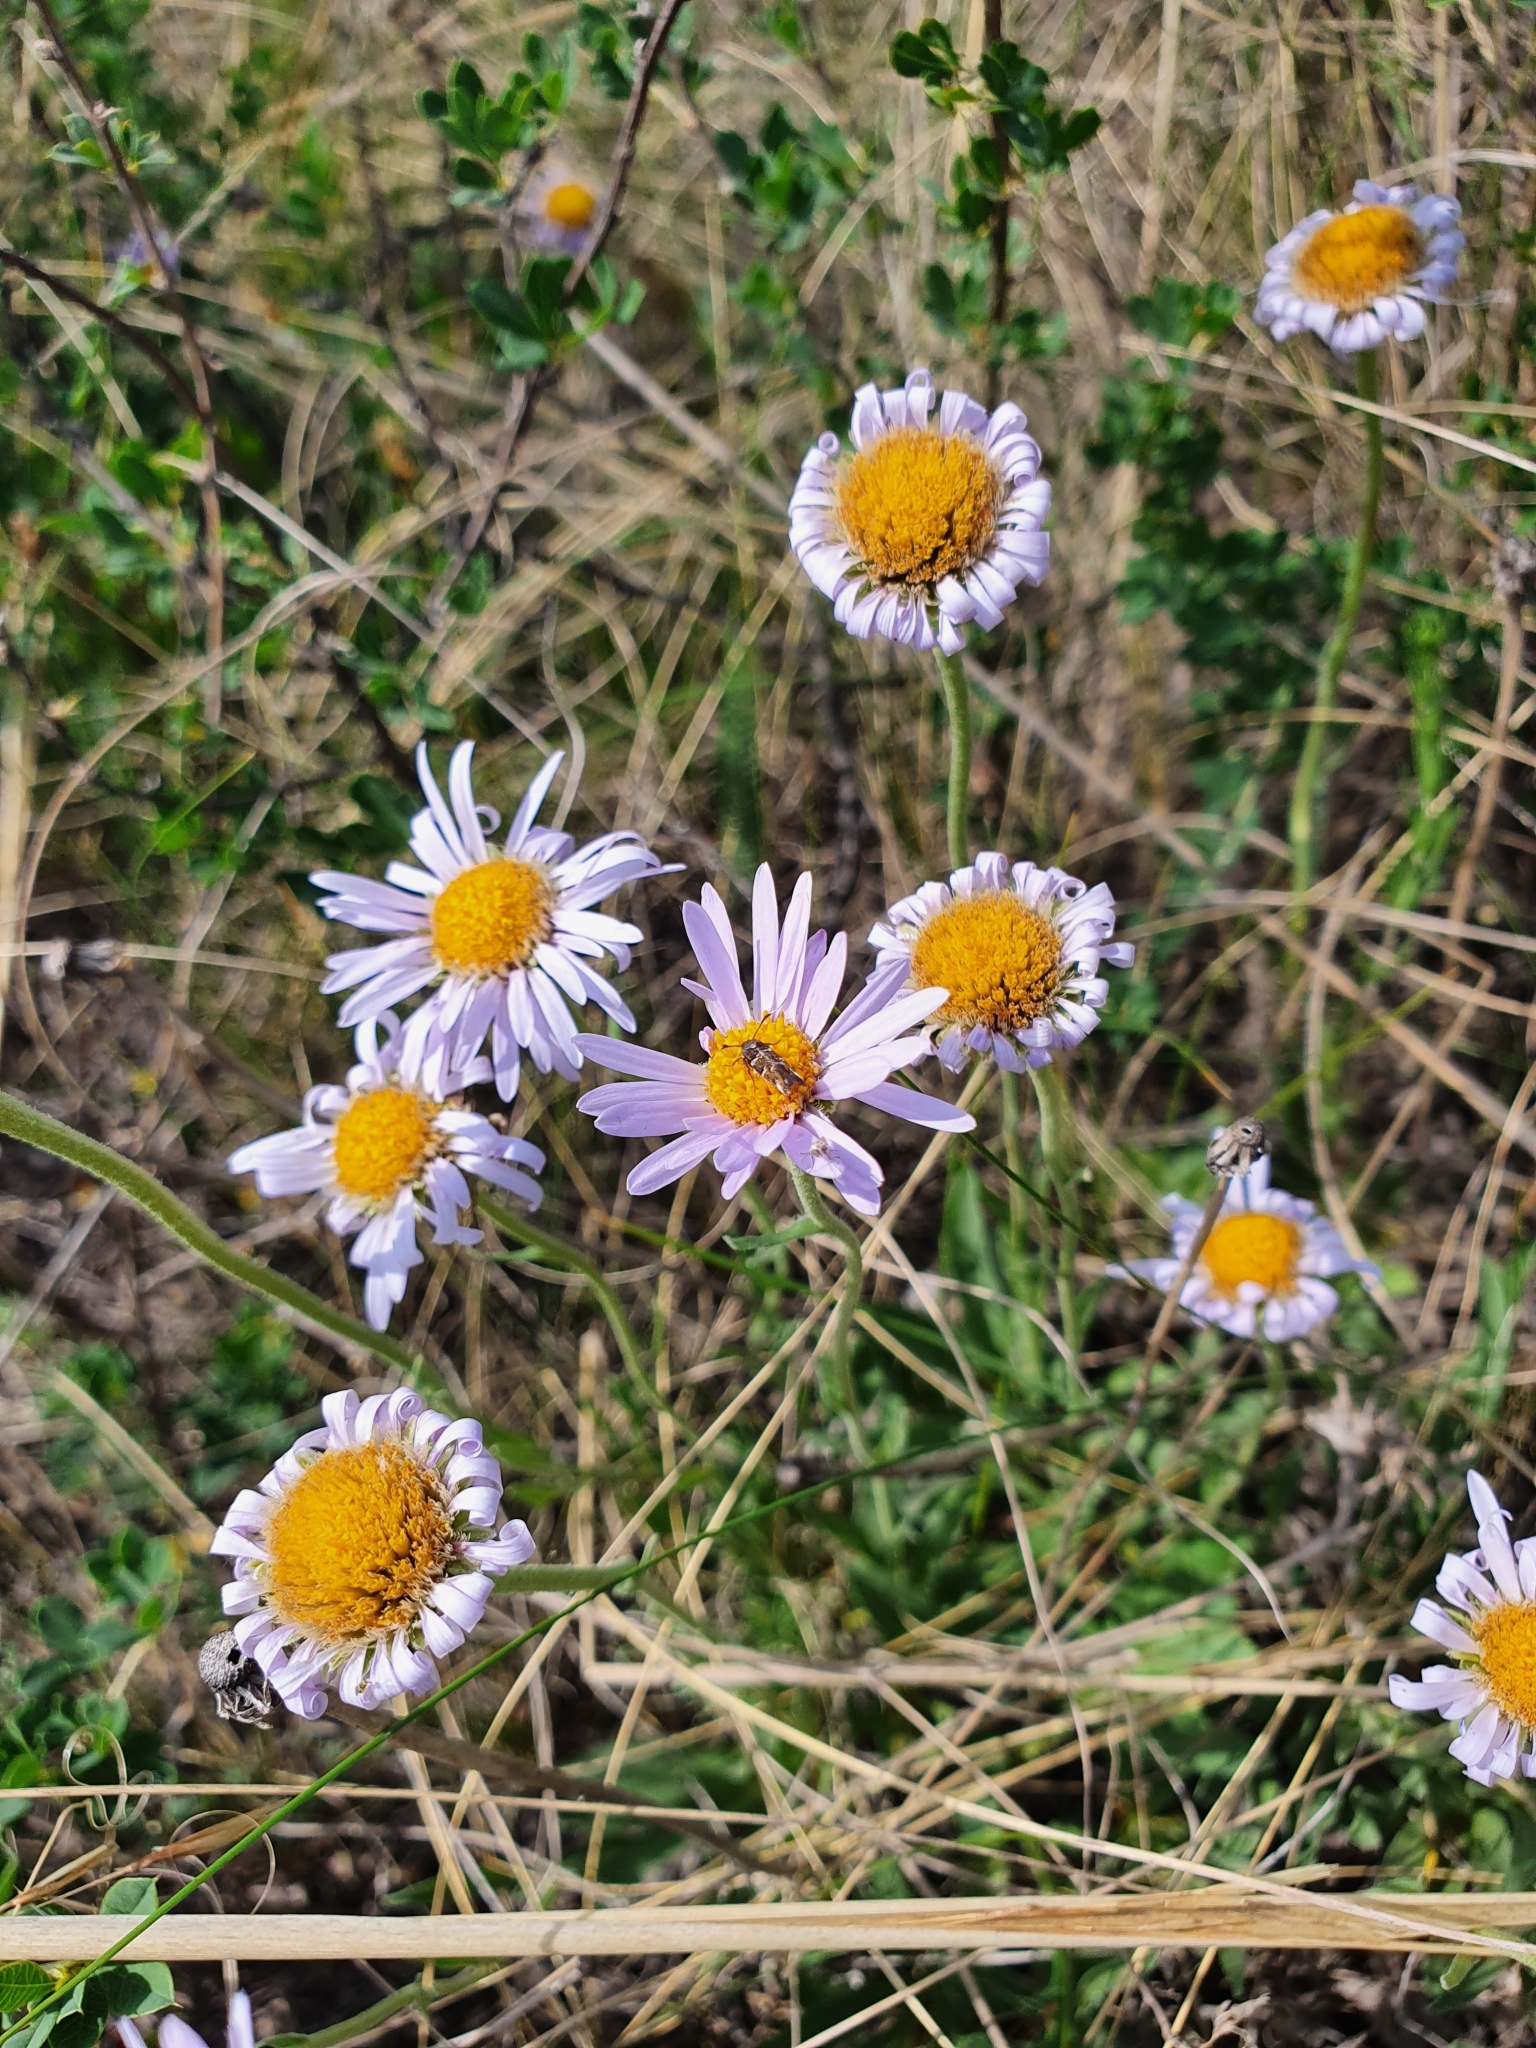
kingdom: Plantae
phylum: Tracheophyta
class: Magnoliopsida
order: Asterales
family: Asteraceae
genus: Aster
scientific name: Aster alpinus
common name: Alpine aster
